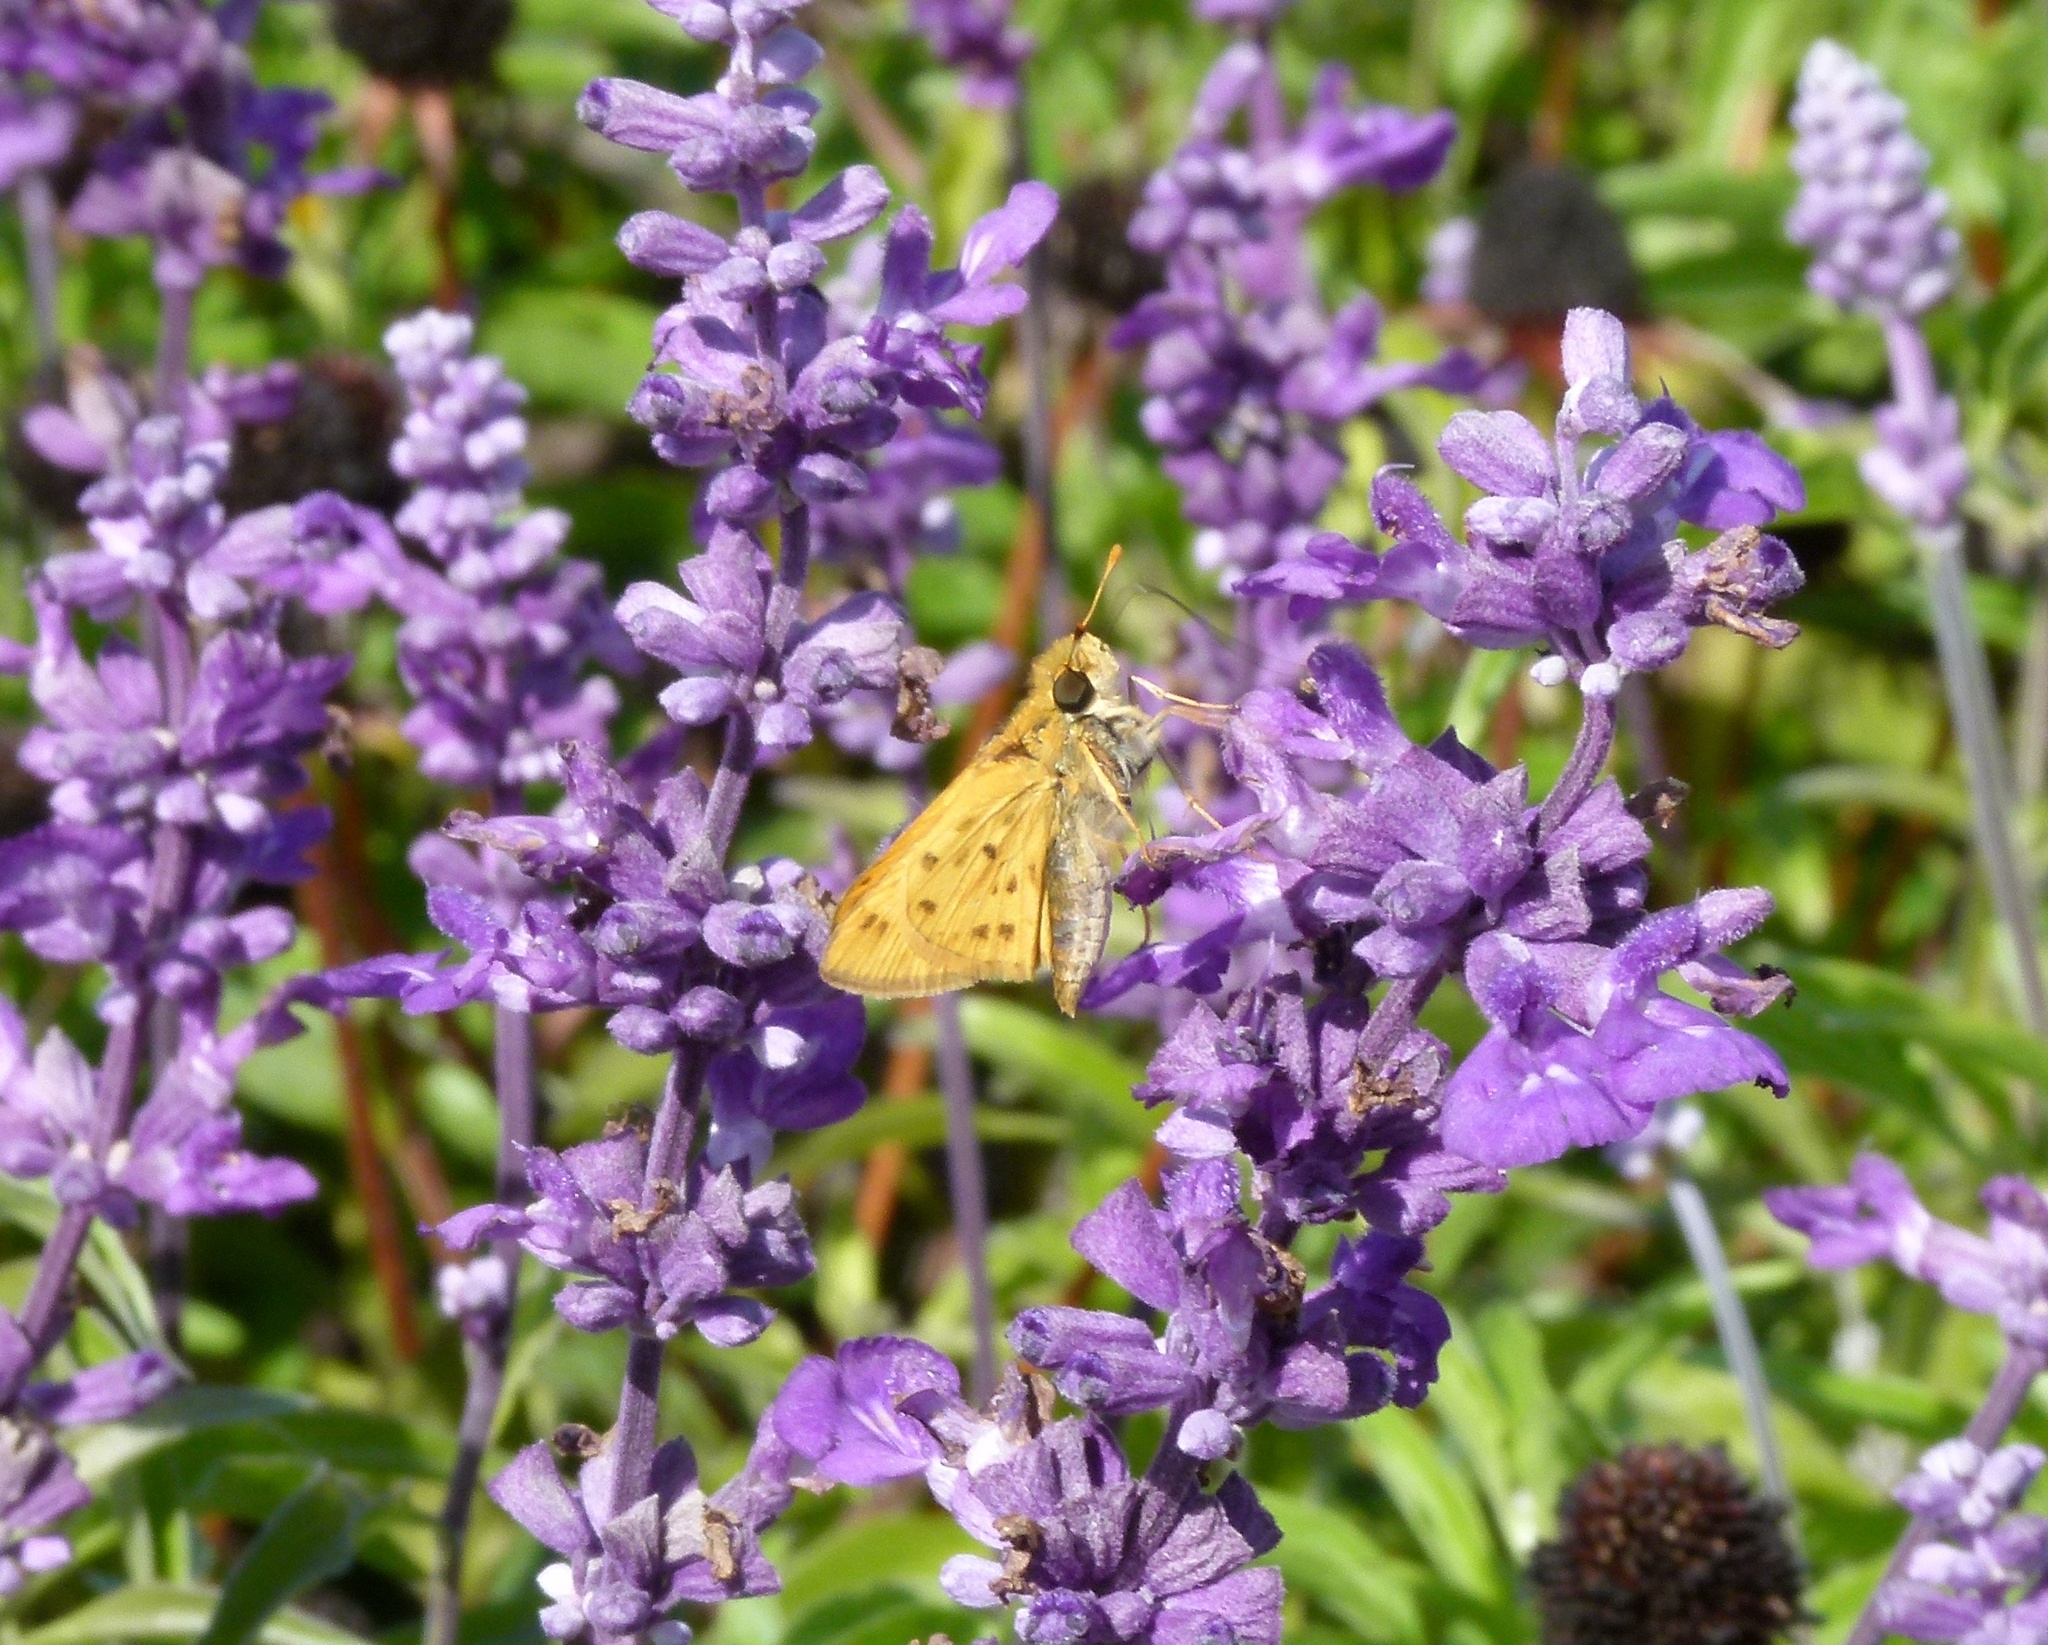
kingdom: Animalia
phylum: Arthropoda
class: Insecta
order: Lepidoptera
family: Hesperiidae
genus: Hylephila
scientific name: Hylephila phyleus
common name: Fiery skipper
